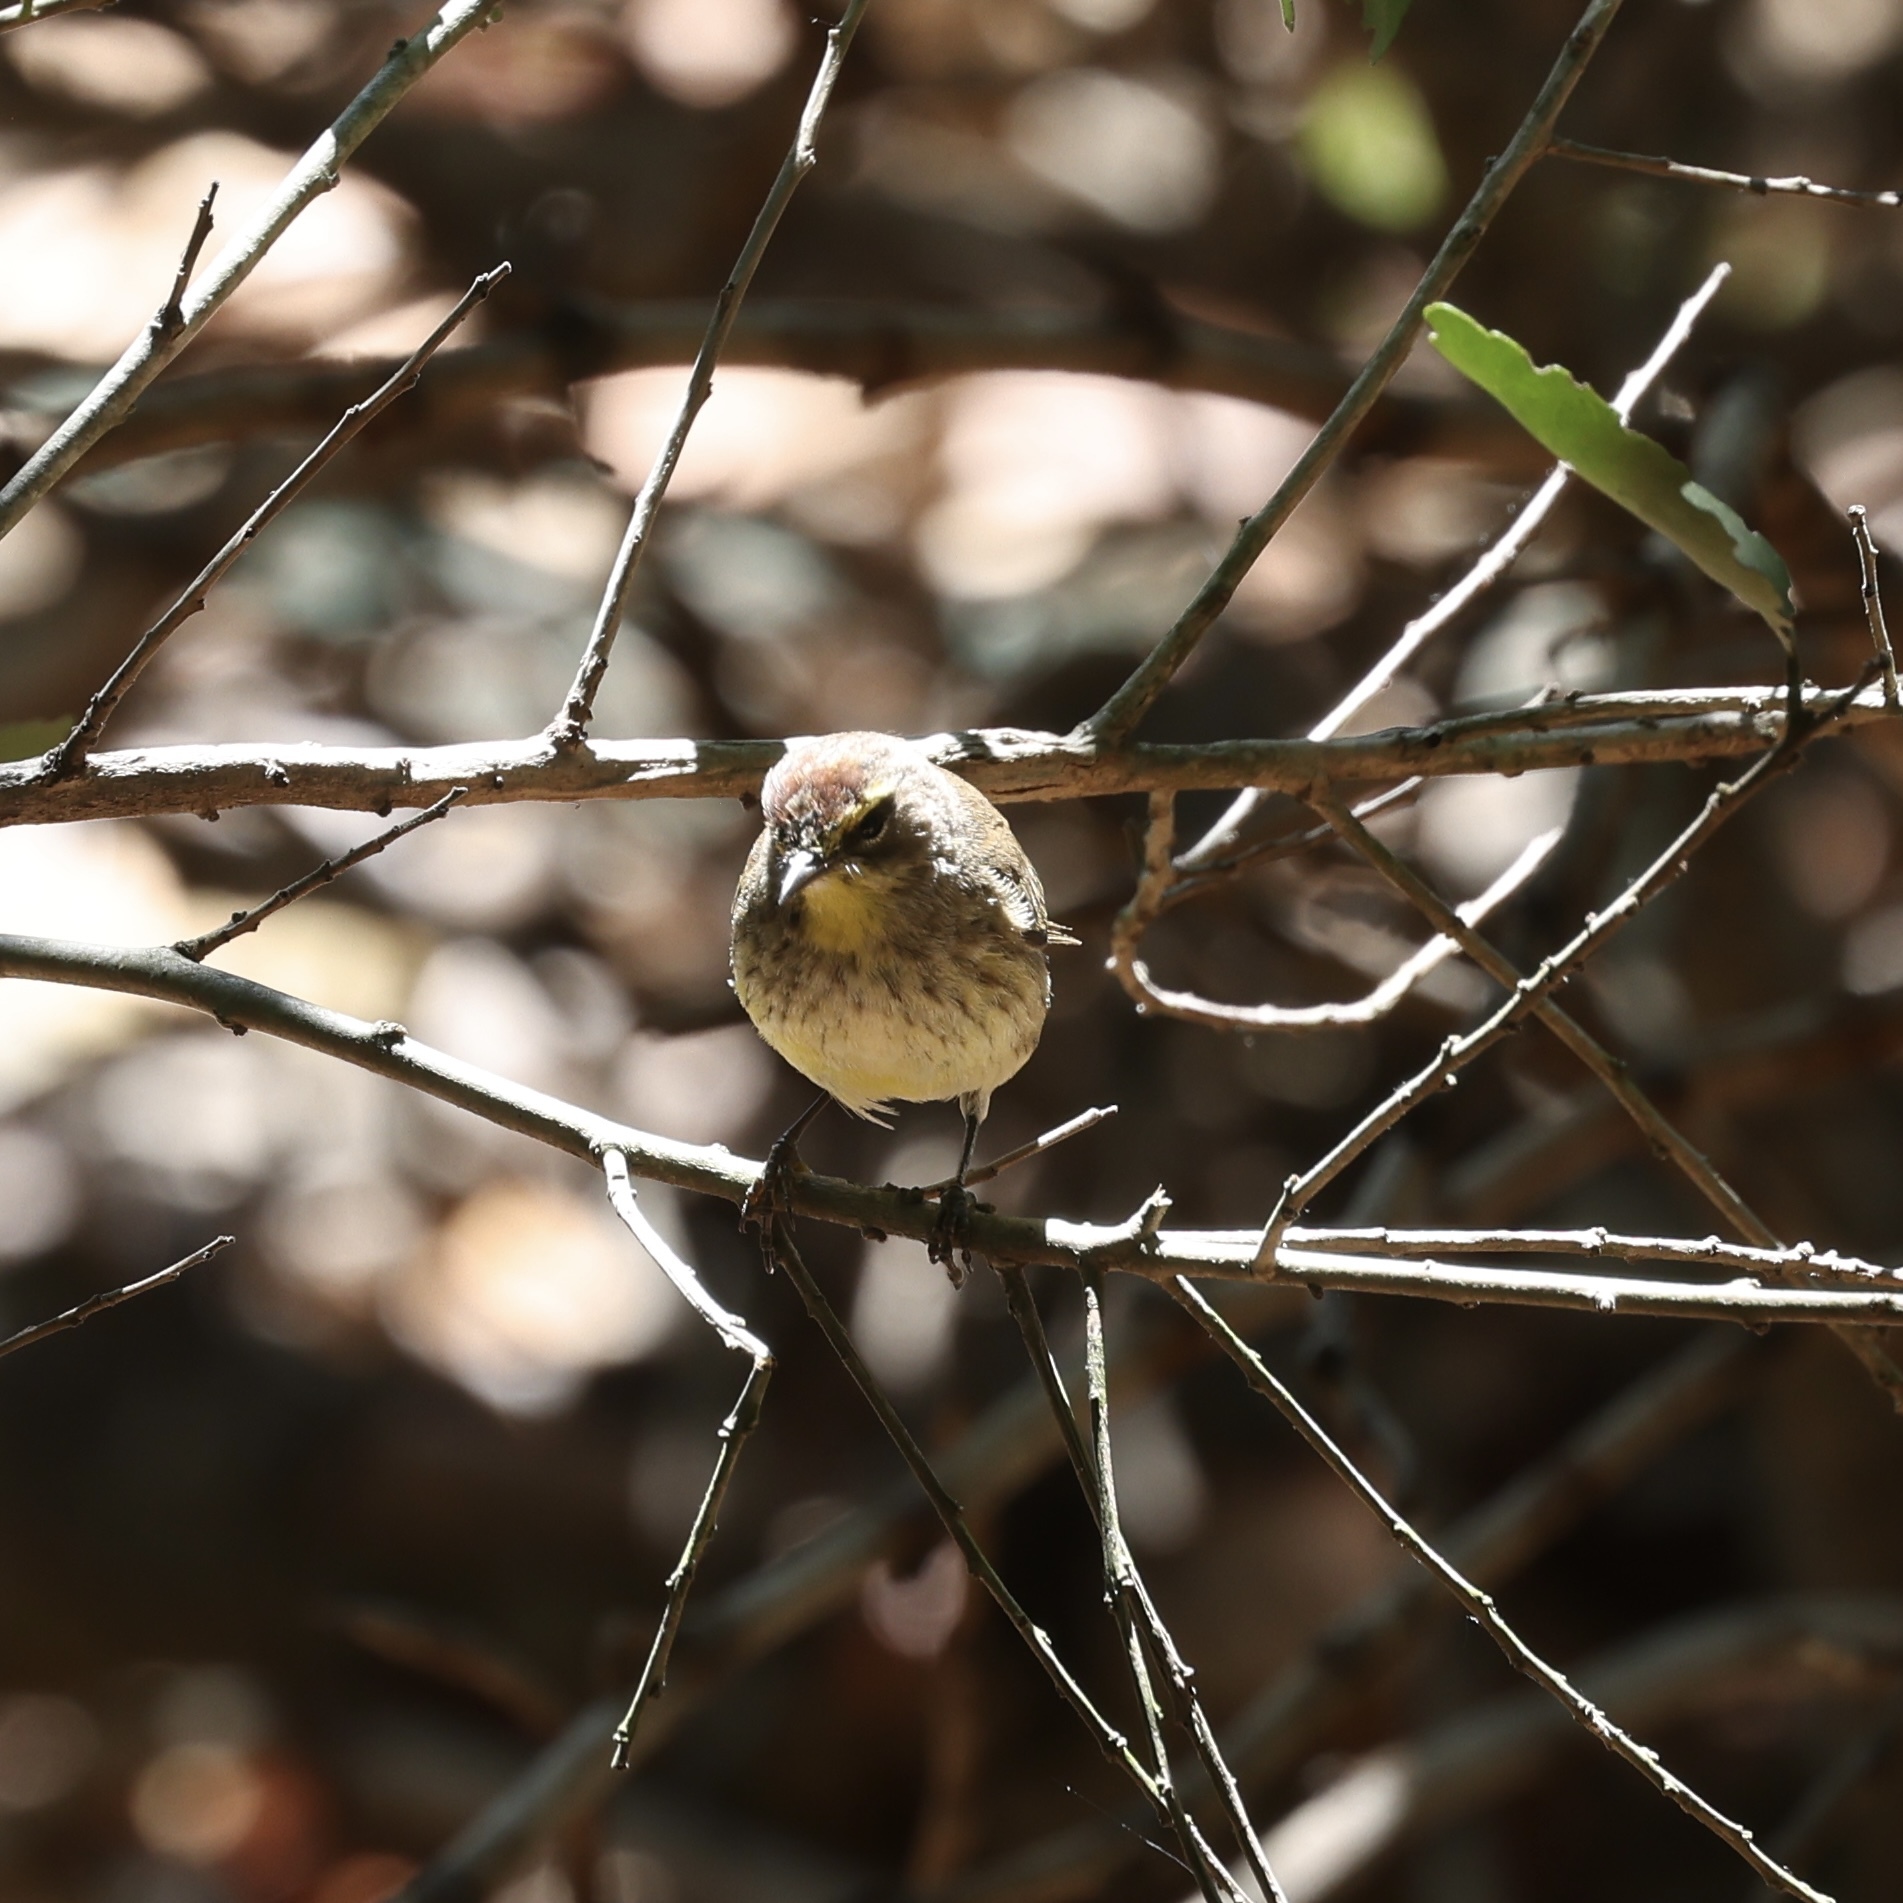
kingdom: Animalia
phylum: Chordata
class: Aves
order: Passeriformes
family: Parulidae
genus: Setophaga
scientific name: Setophaga palmarum
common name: Palm warbler
